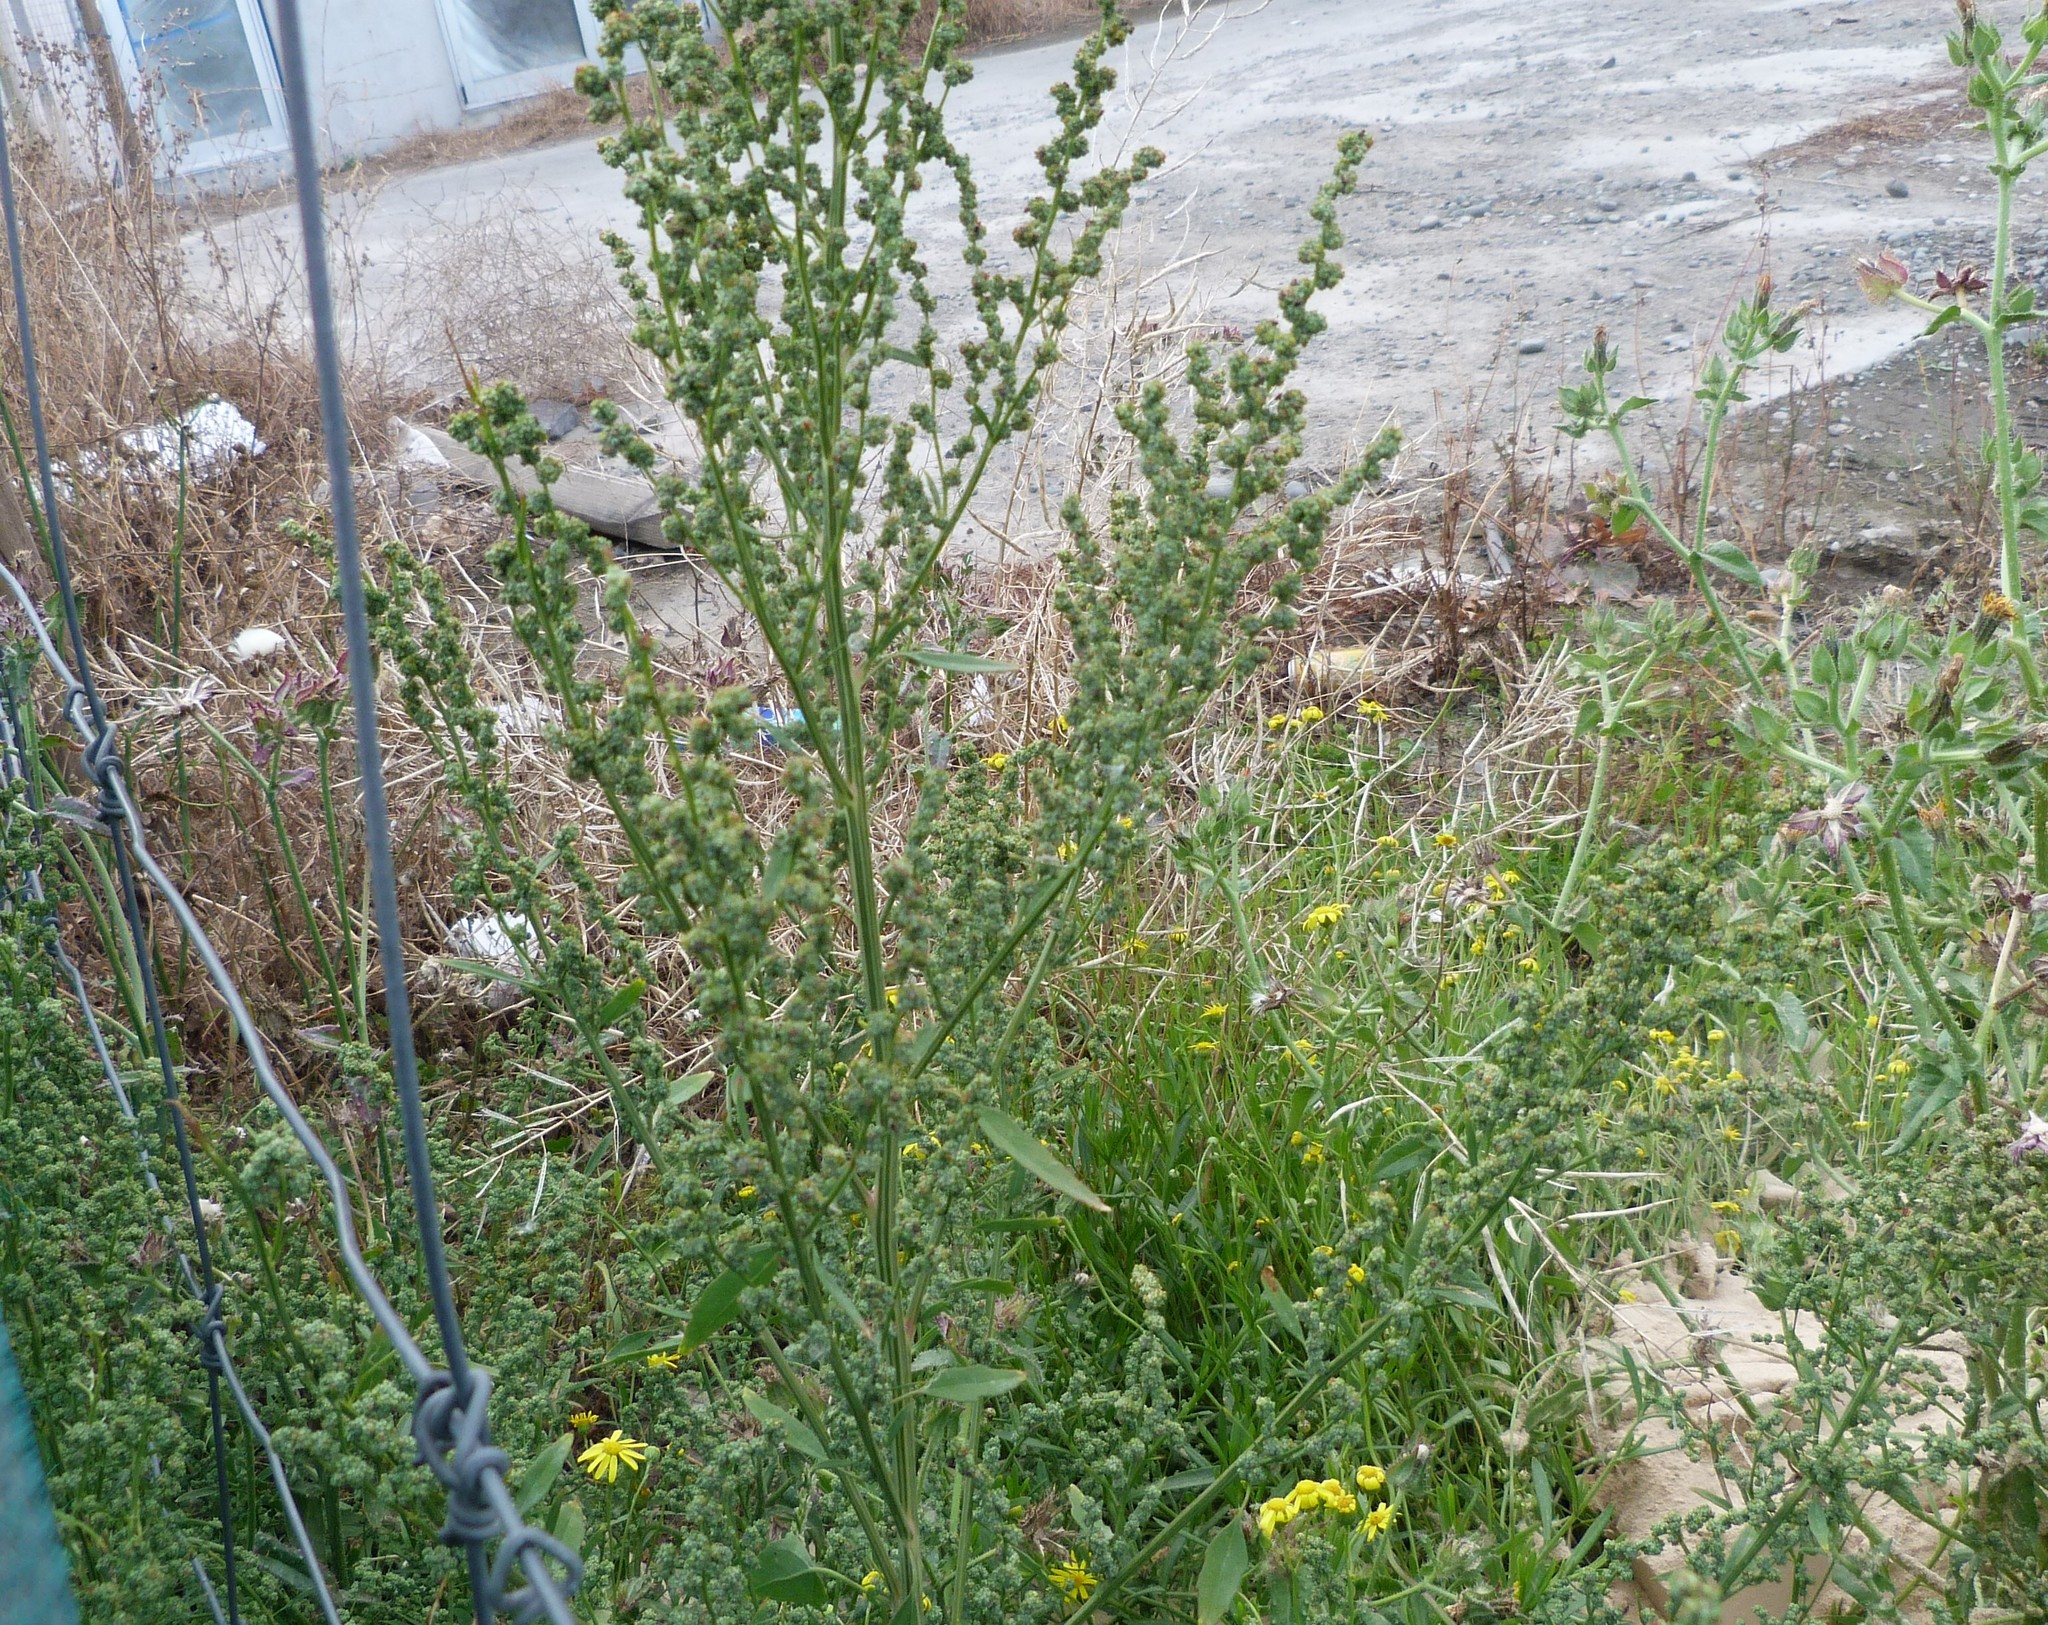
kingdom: Plantae
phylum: Tracheophyta
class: Magnoliopsida
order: Caryophyllales
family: Amaranthaceae
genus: Chenopodium
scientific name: Chenopodium album
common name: Fat-hen
